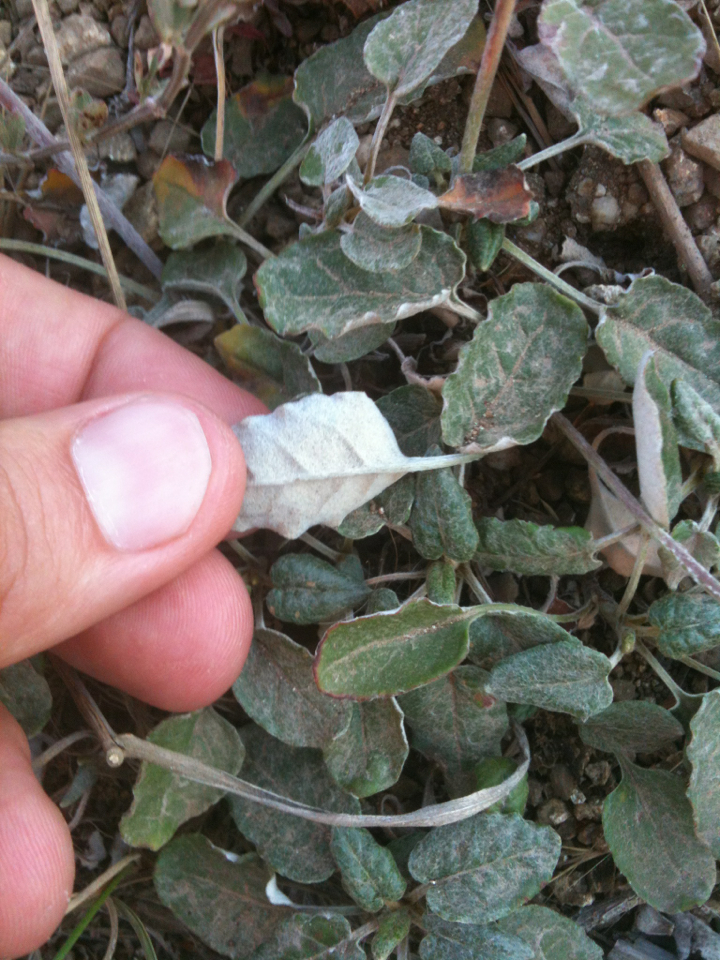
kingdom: Plantae
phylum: Tracheophyta
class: Magnoliopsida
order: Caryophyllales
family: Polygonaceae
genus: Eriogonum
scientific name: Eriogonum nudum
